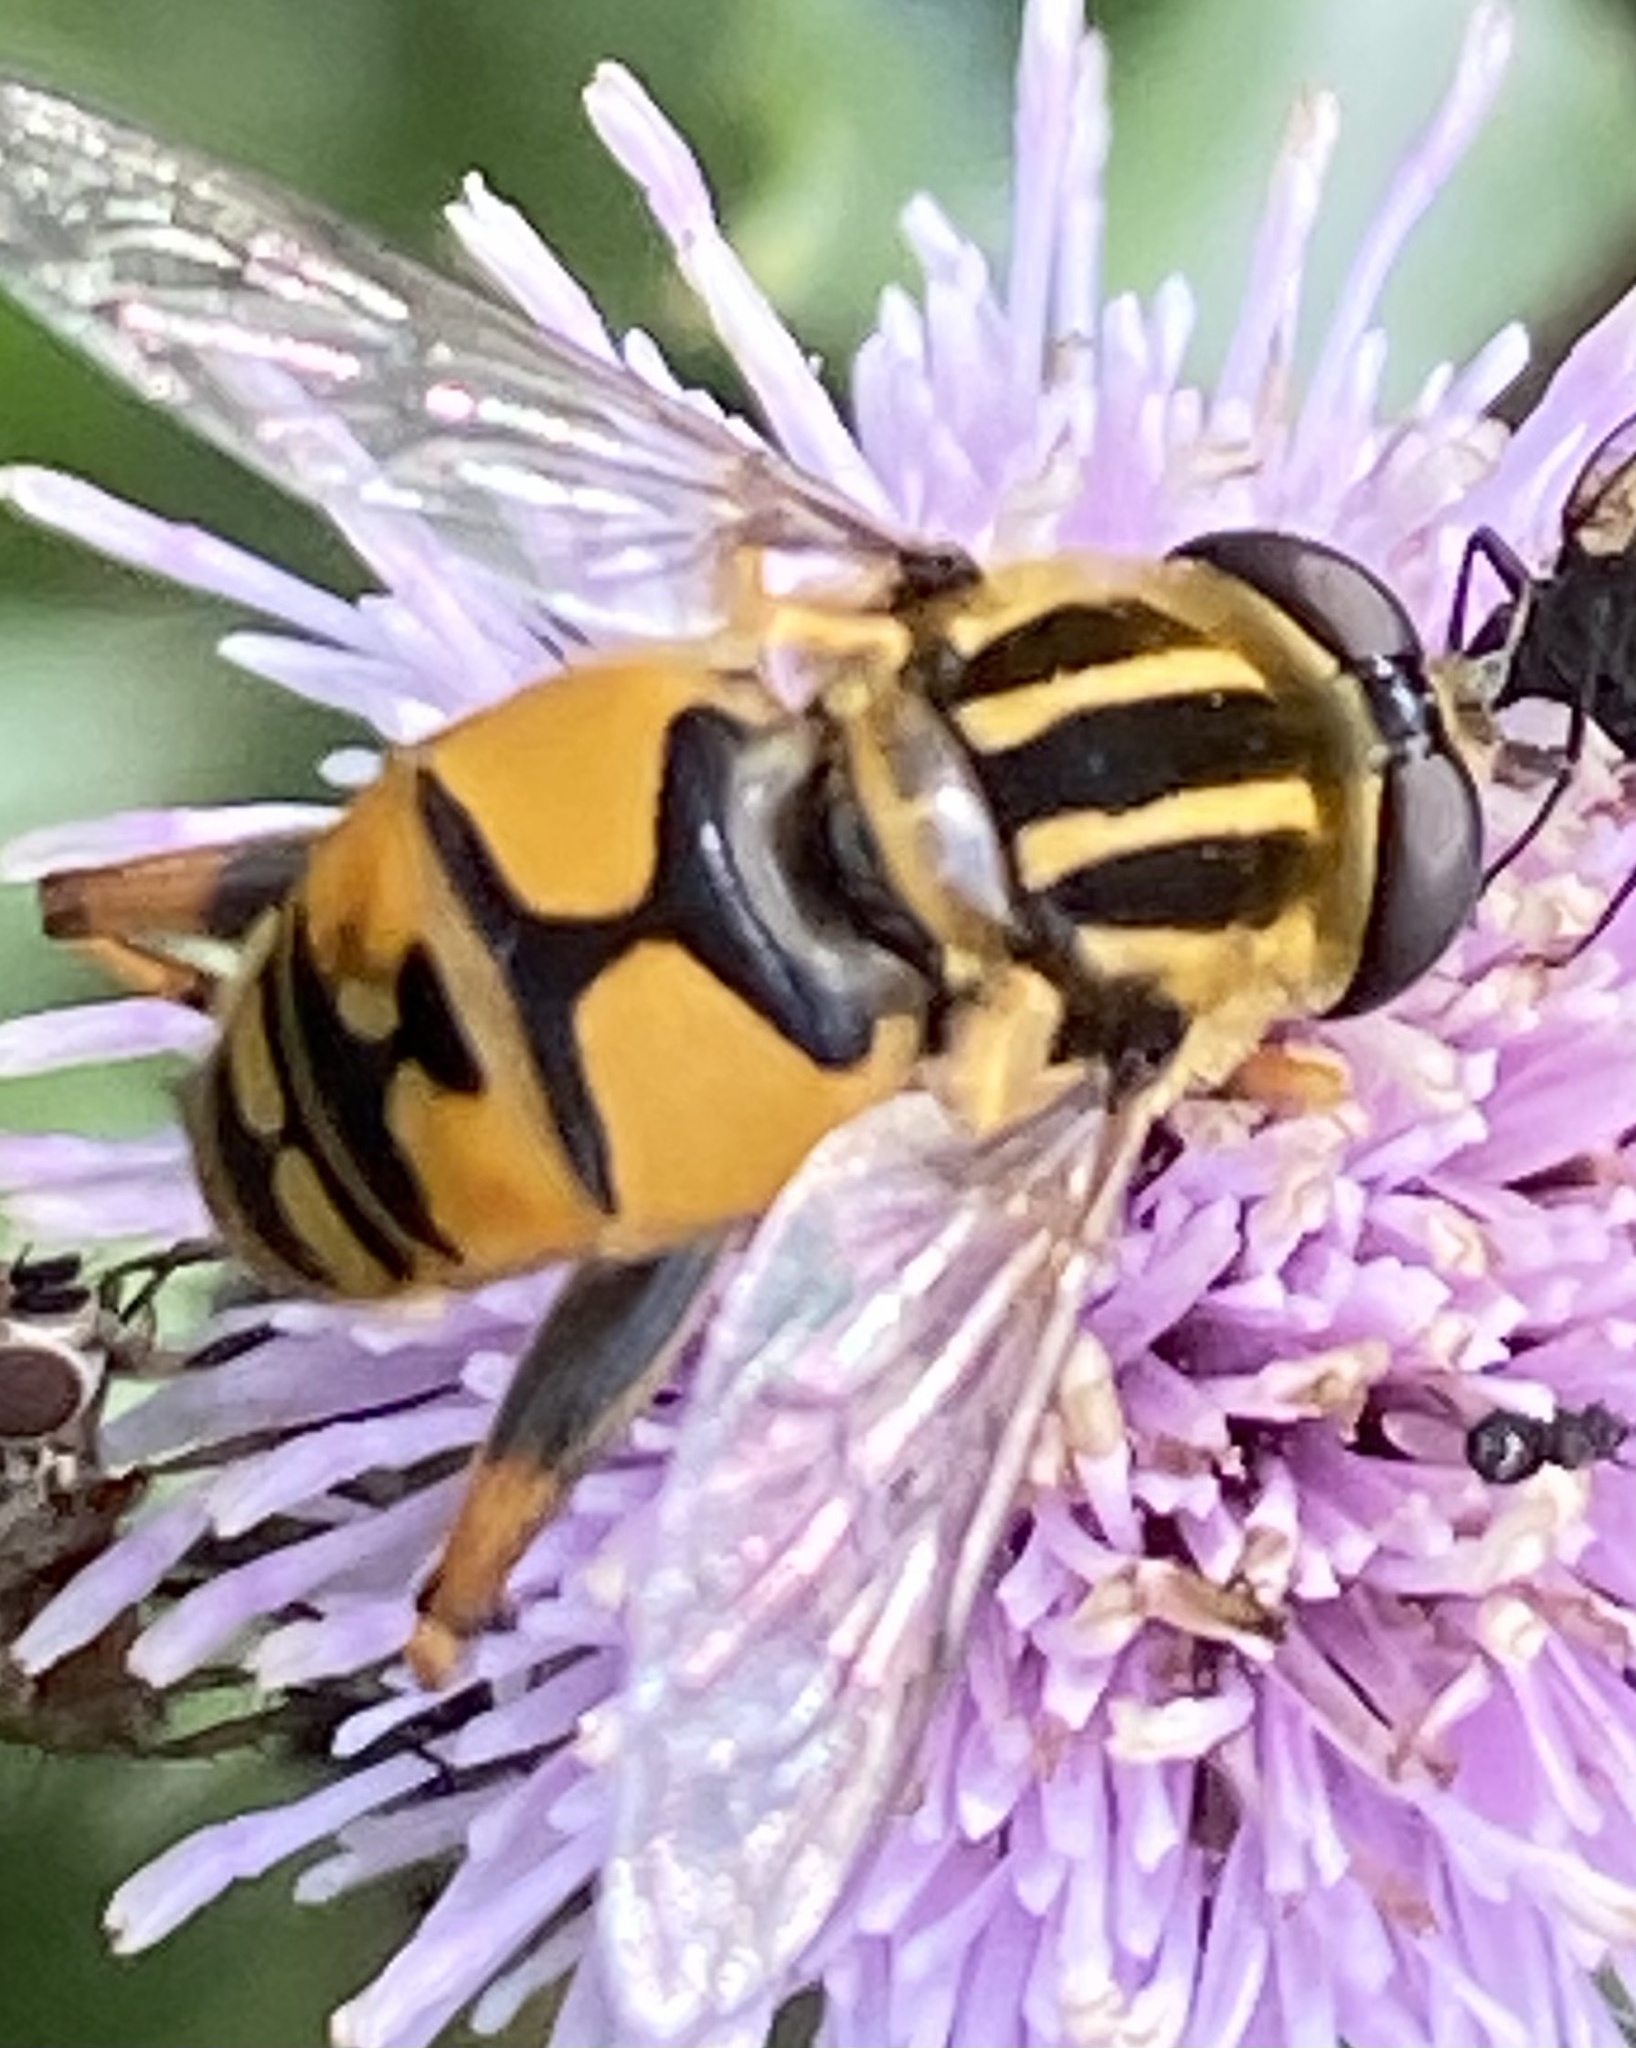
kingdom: Animalia
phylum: Arthropoda
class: Insecta
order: Diptera
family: Syrphidae
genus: Helophilus
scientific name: Helophilus pendulus
